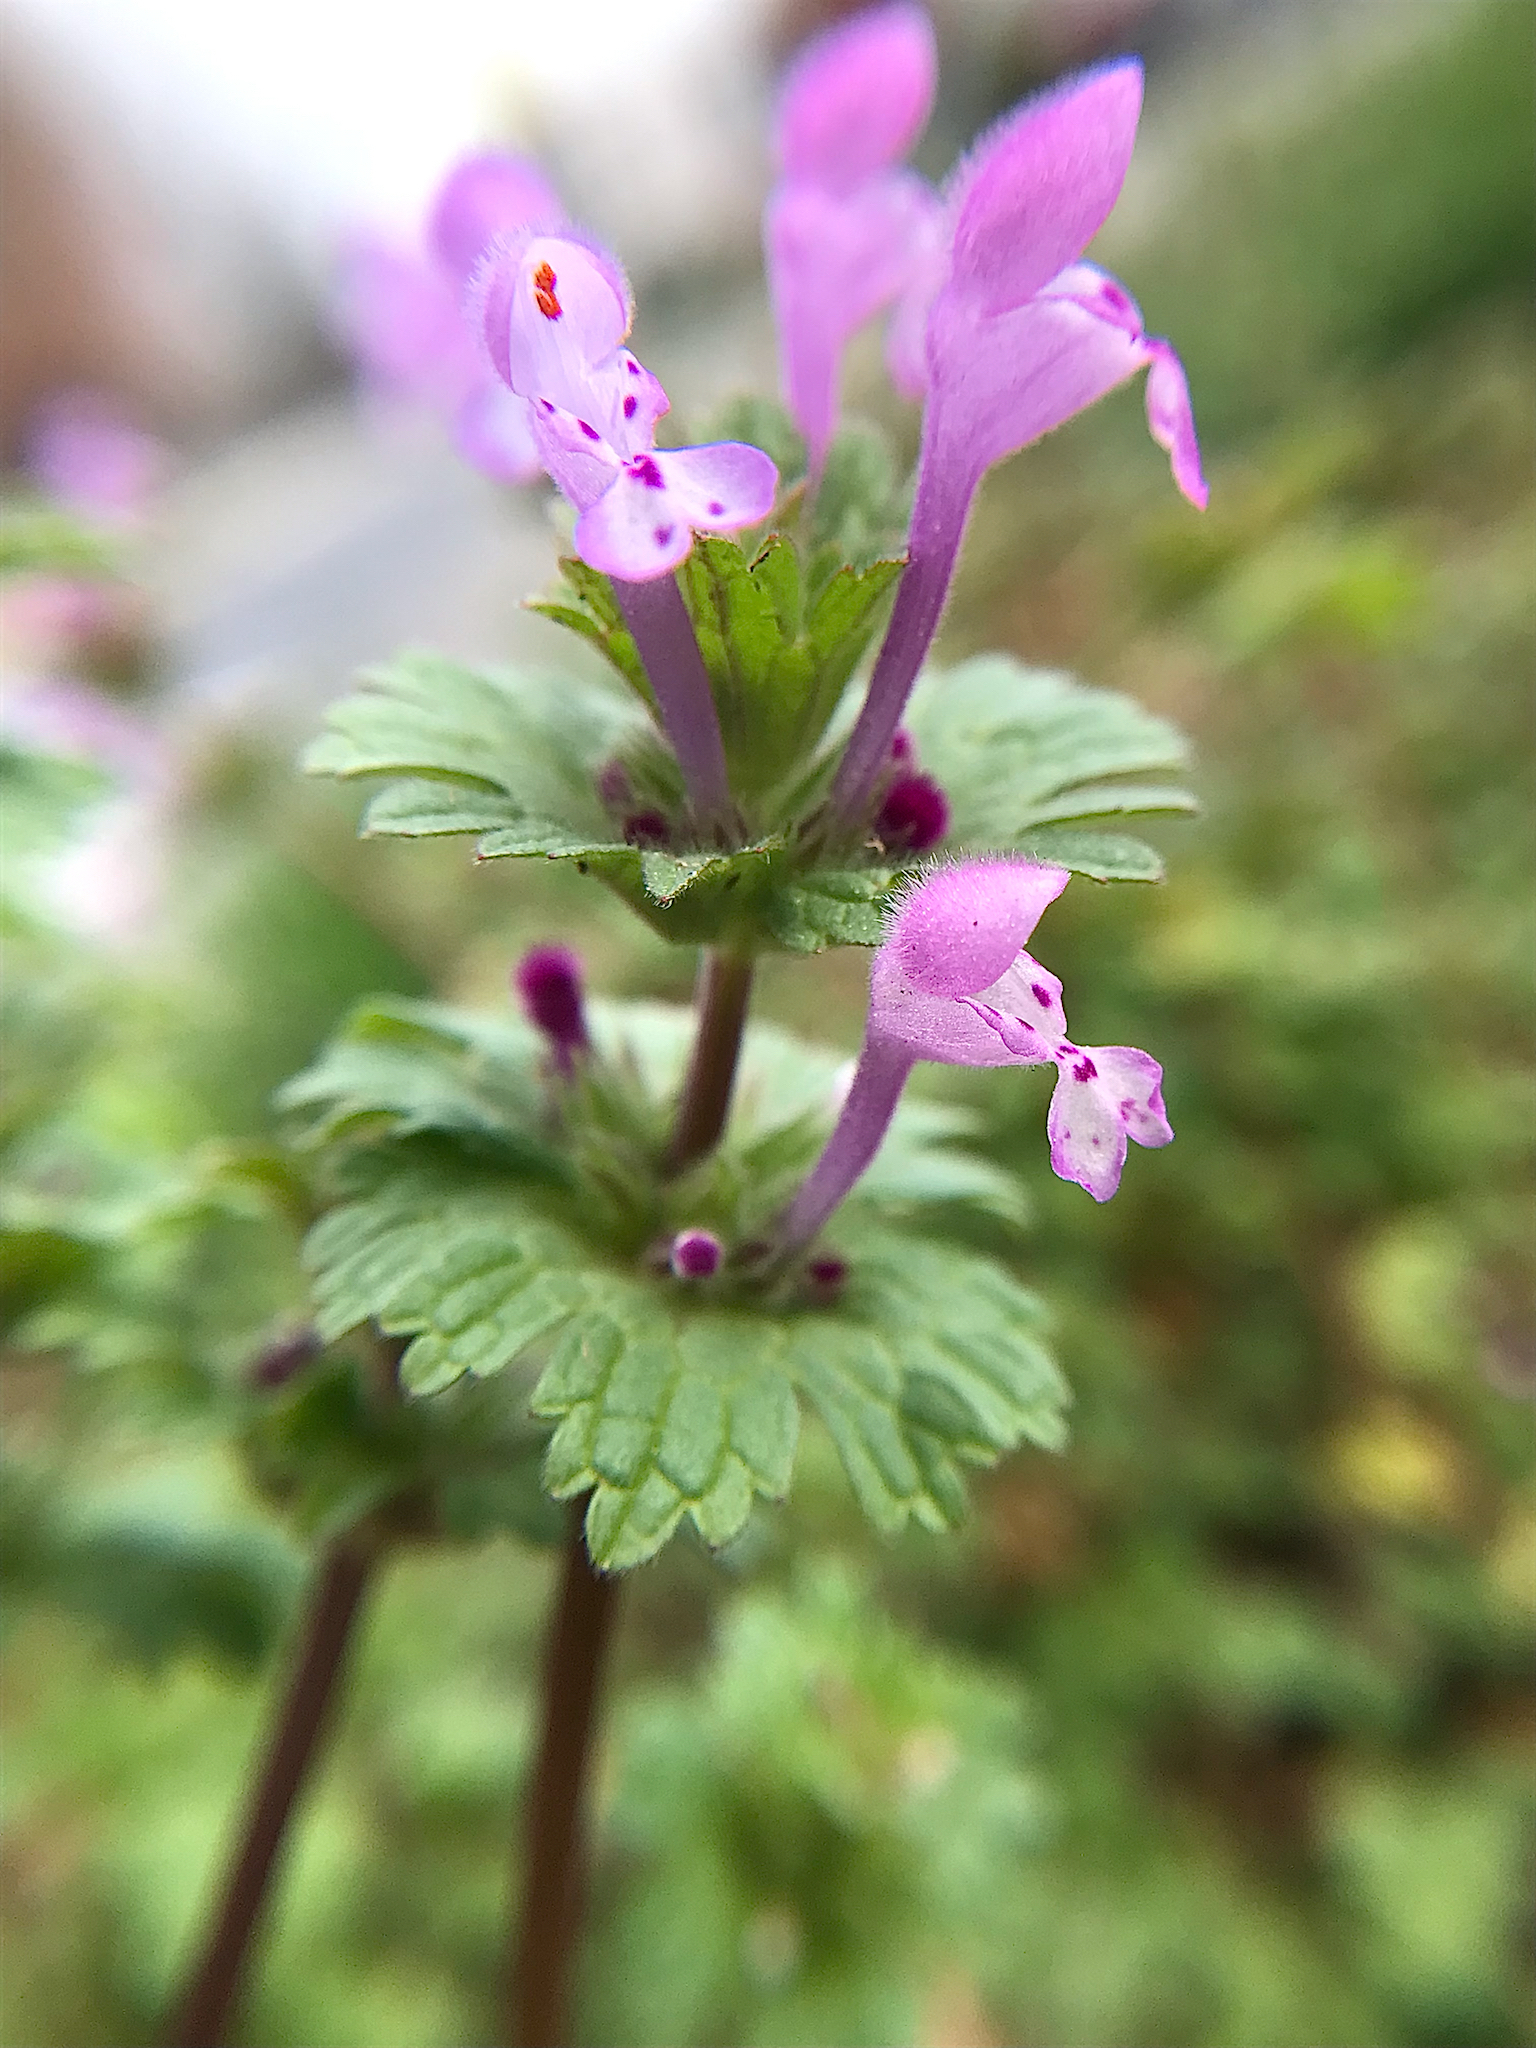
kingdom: Plantae
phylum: Tracheophyta
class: Magnoliopsida
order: Lamiales
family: Lamiaceae
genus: Lamium
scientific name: Lamium amplexicaule
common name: Henbit dead-nettle
